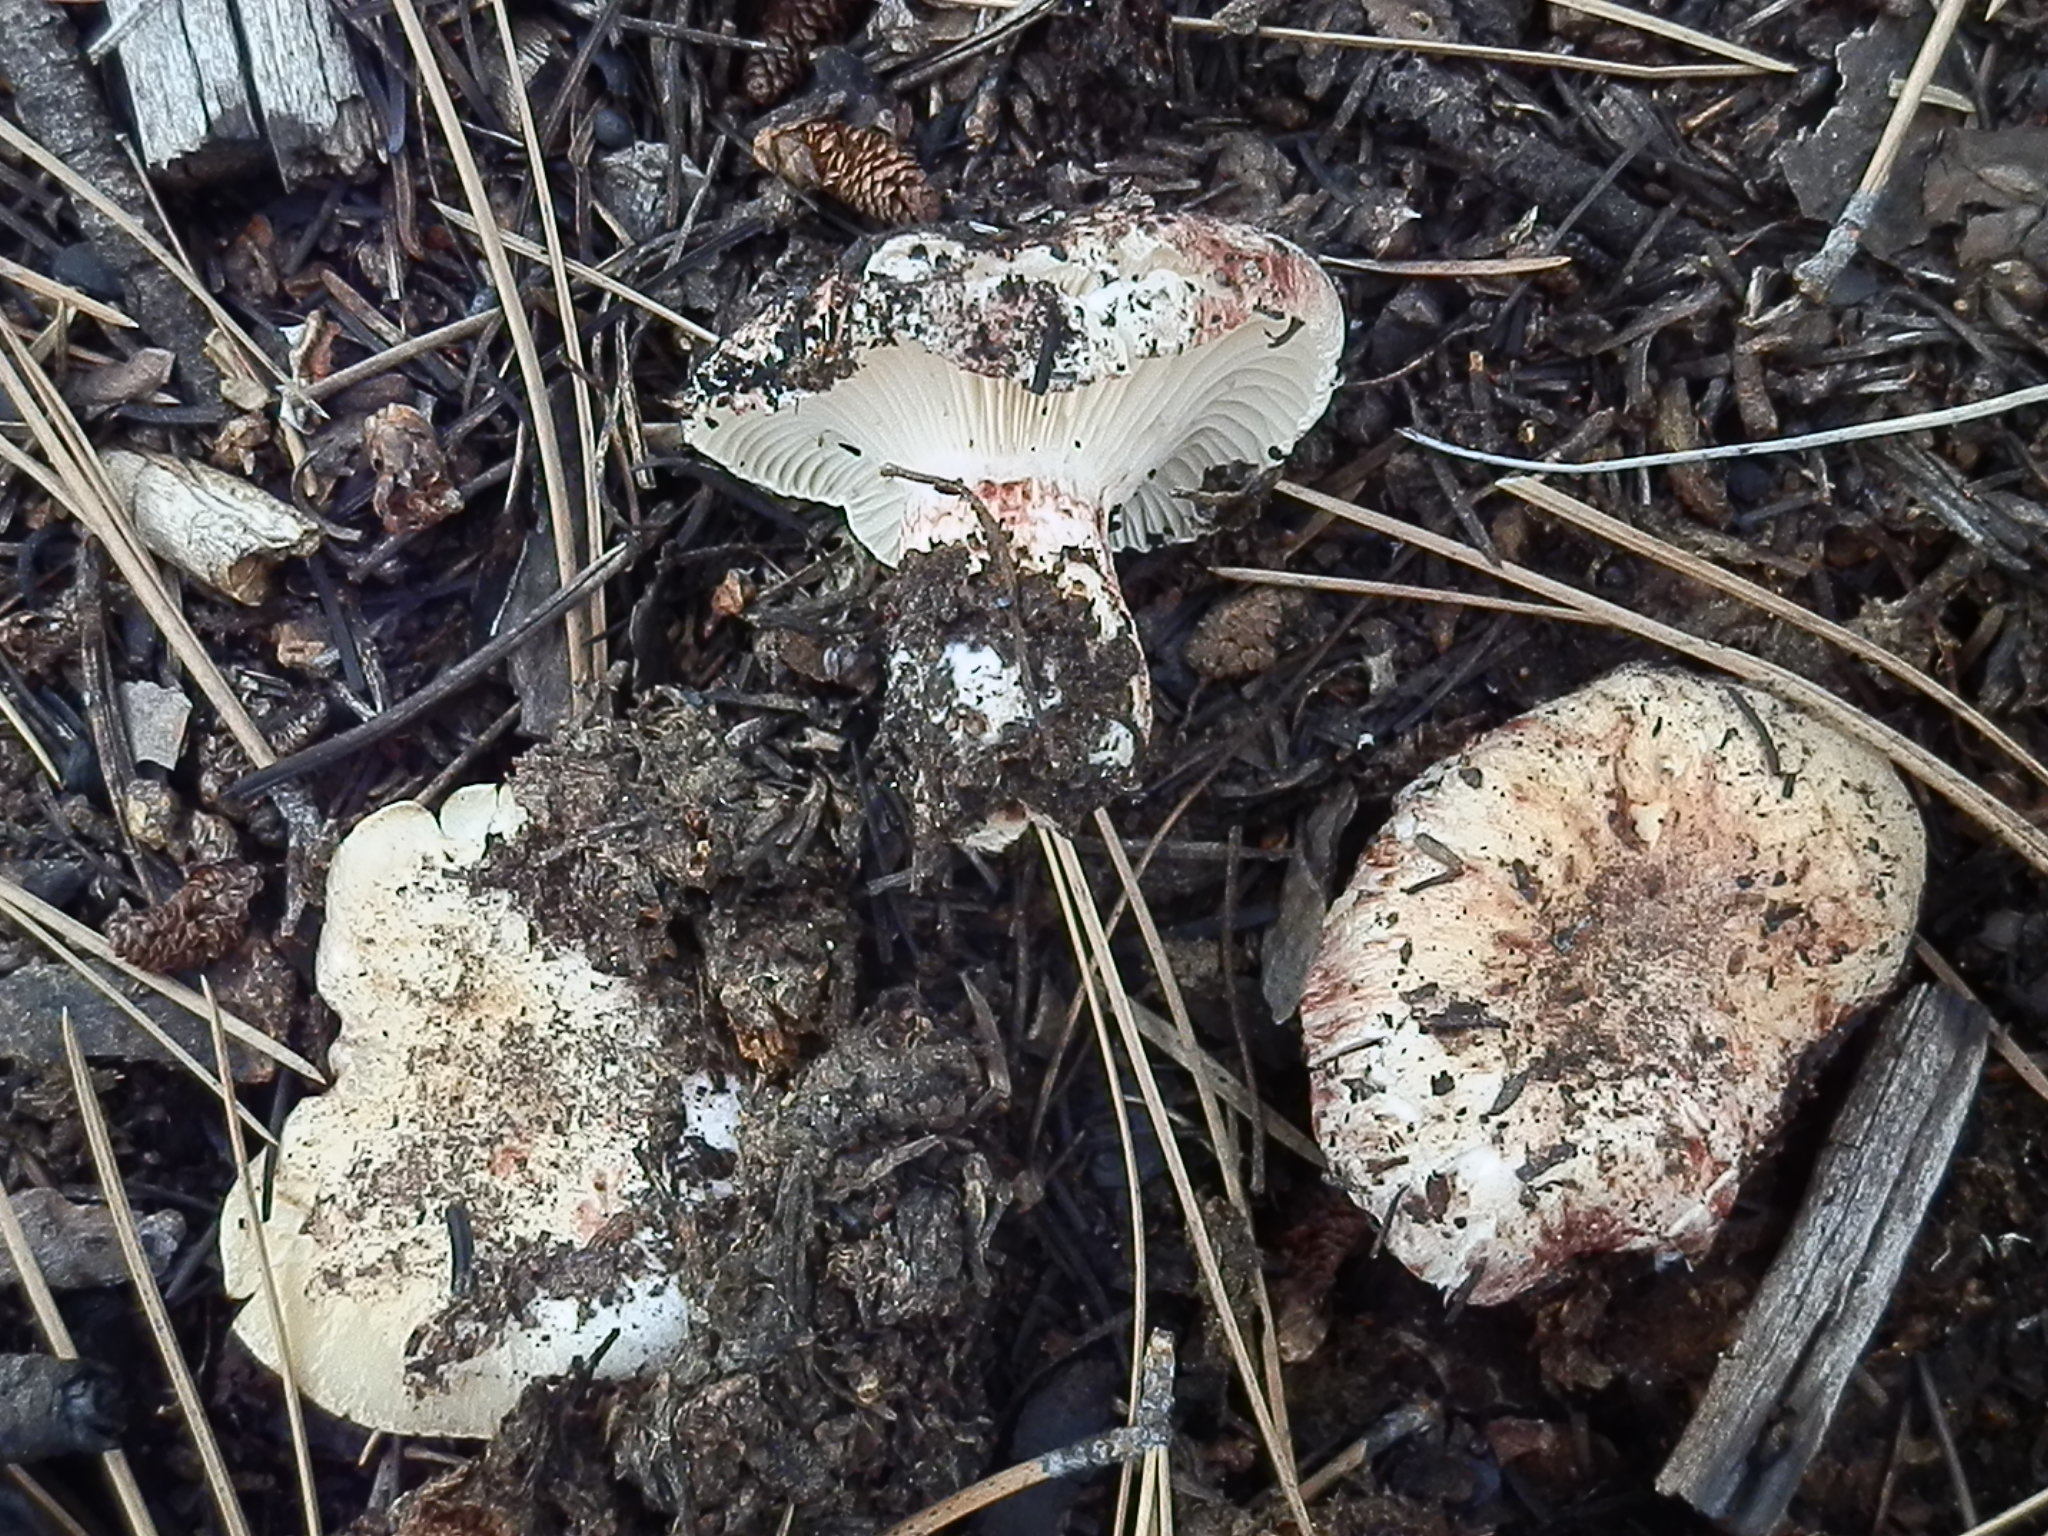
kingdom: Fungi
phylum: Basidiomycota
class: Agaricomycetes
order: Agaricales
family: Hygrophoraceae
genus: Hygrophorus
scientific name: Hygrophorus purpurascens
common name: Veiled purple waxcap
